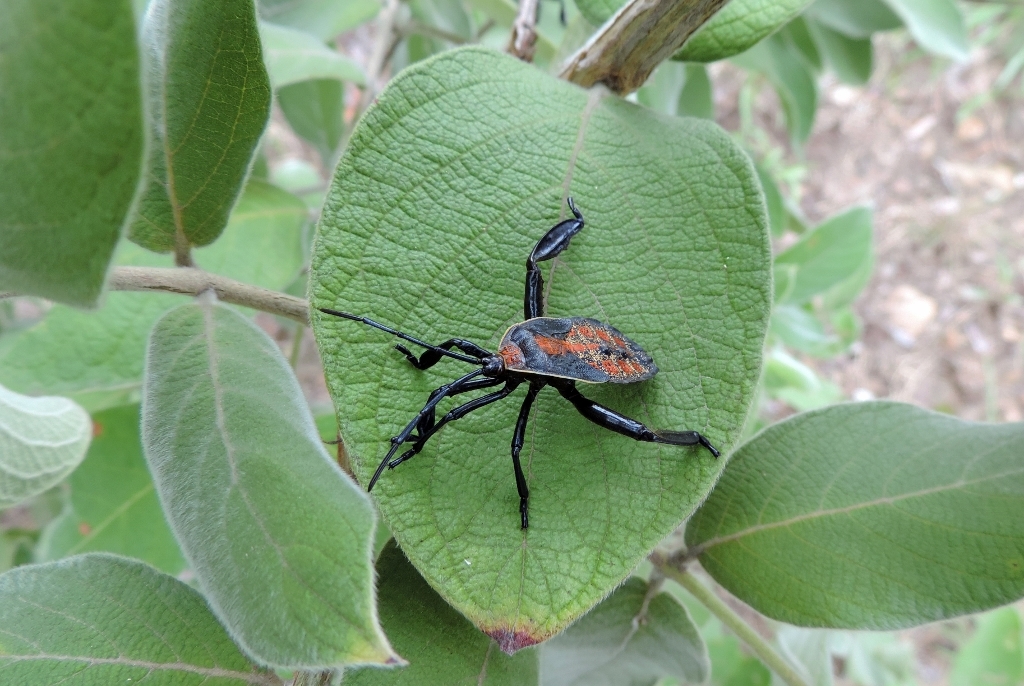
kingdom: Animalia
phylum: Arthropoda
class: Insecta
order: Hemiptera
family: Coreidae
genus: Petascelis
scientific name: Petascelis remipes
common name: Giant twig wilter
